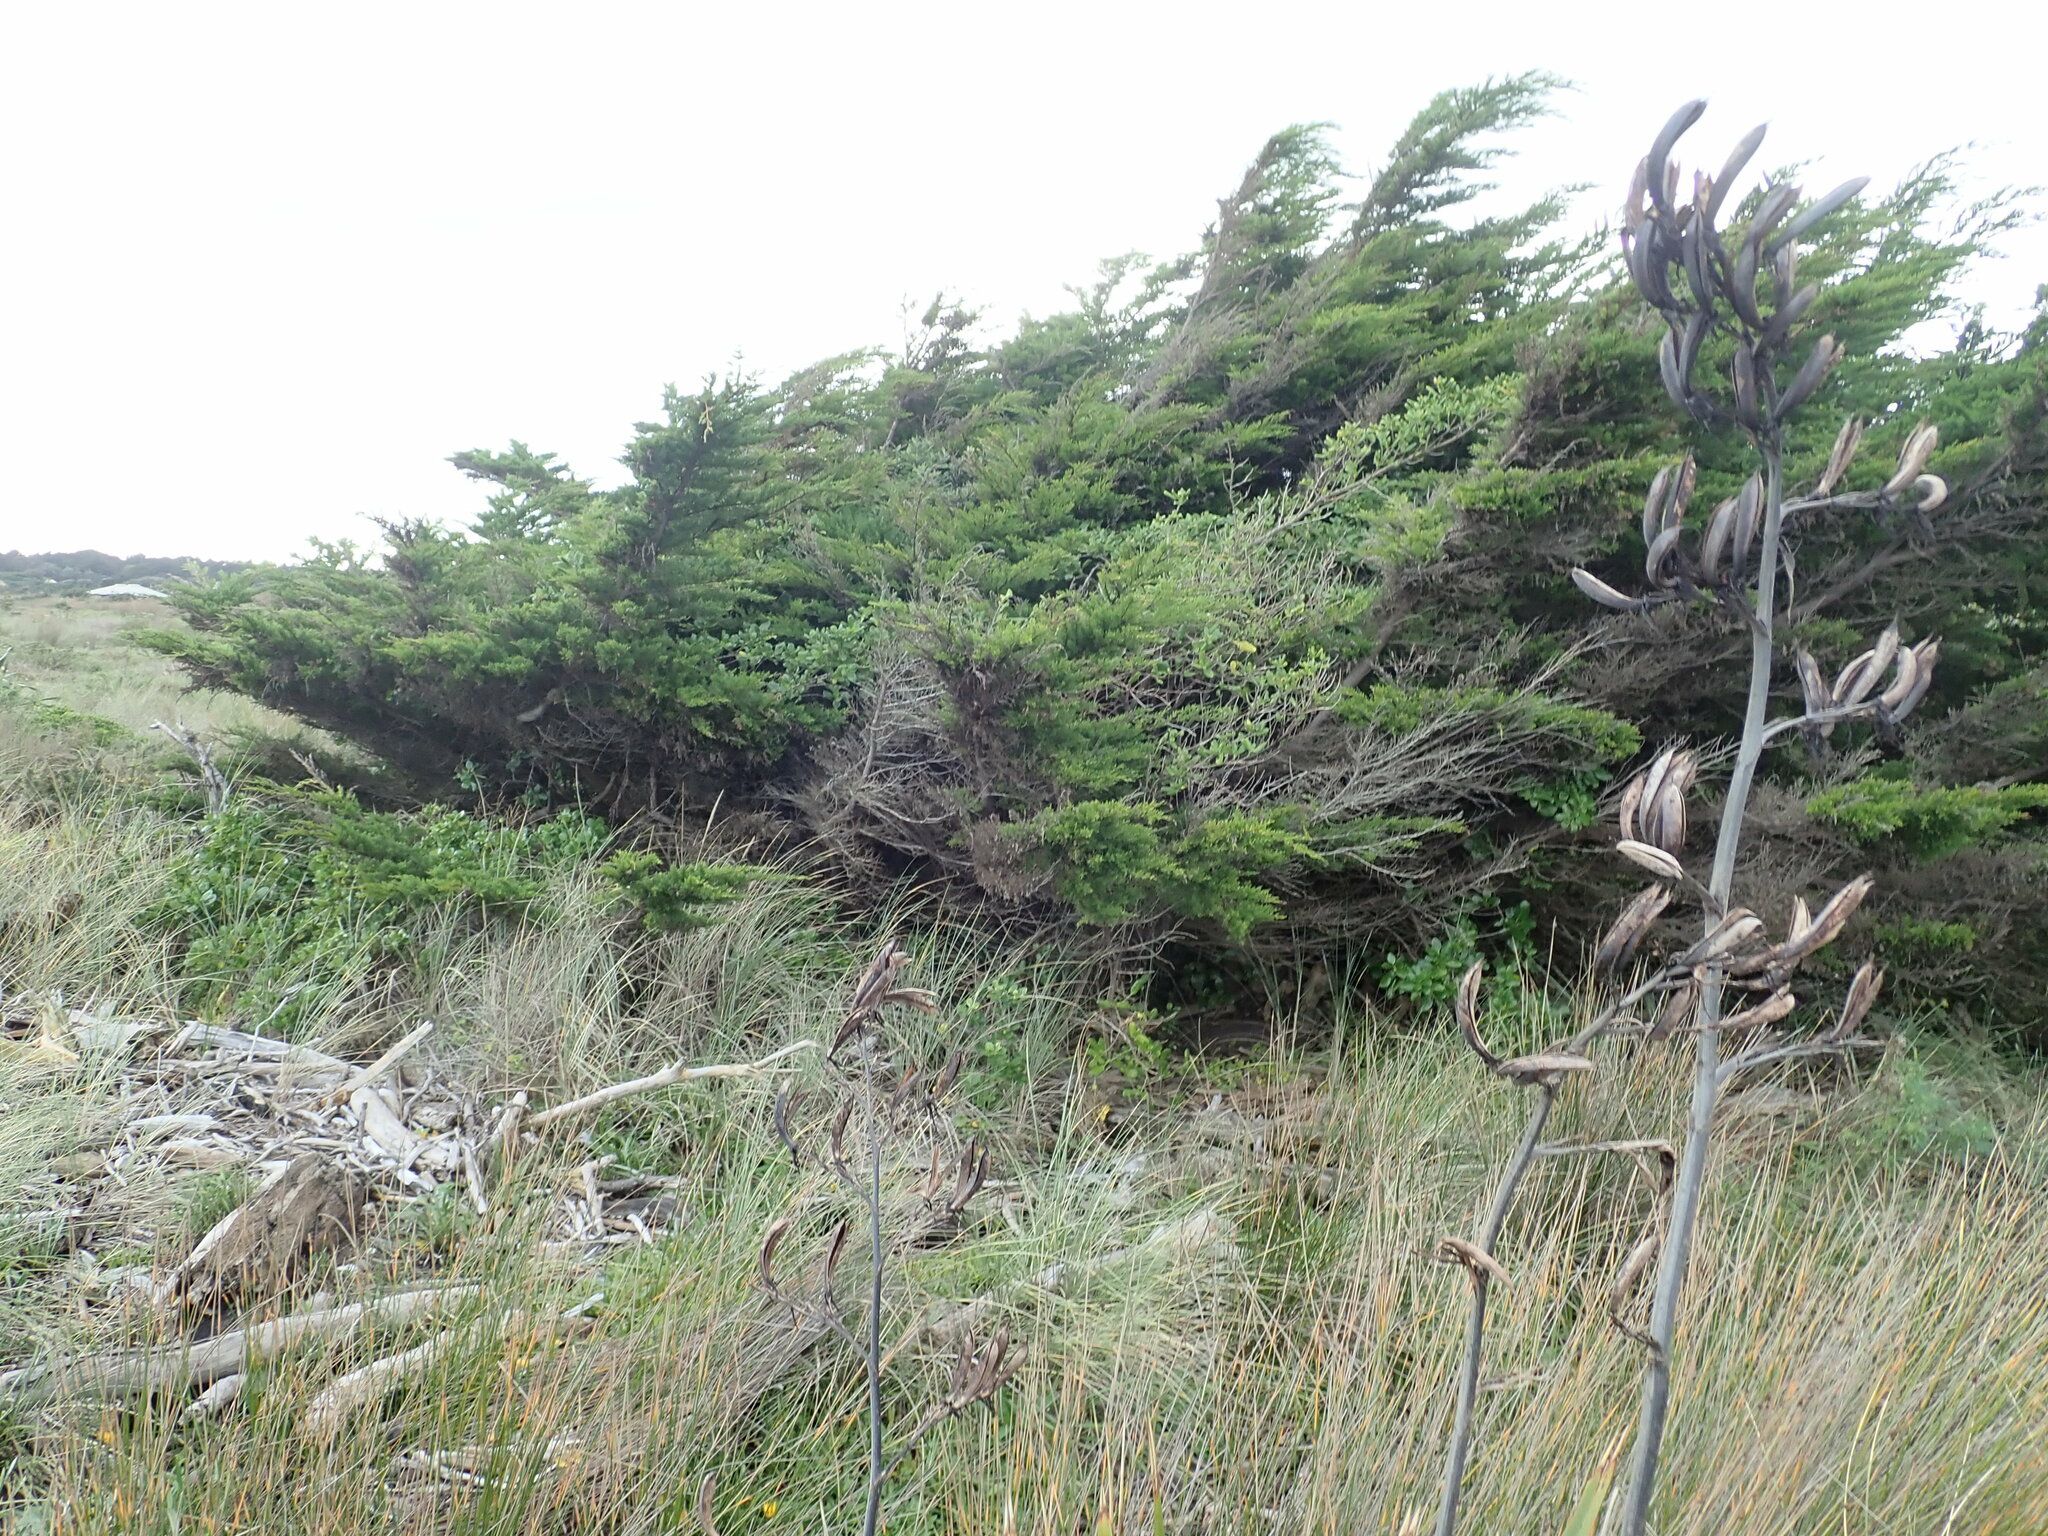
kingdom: Plantae
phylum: Tracheophyta
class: Pinopsida
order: Pinales
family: Cupressaceae
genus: Cupressus
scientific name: Cupressus macrocarpa
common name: Monterey cypress
